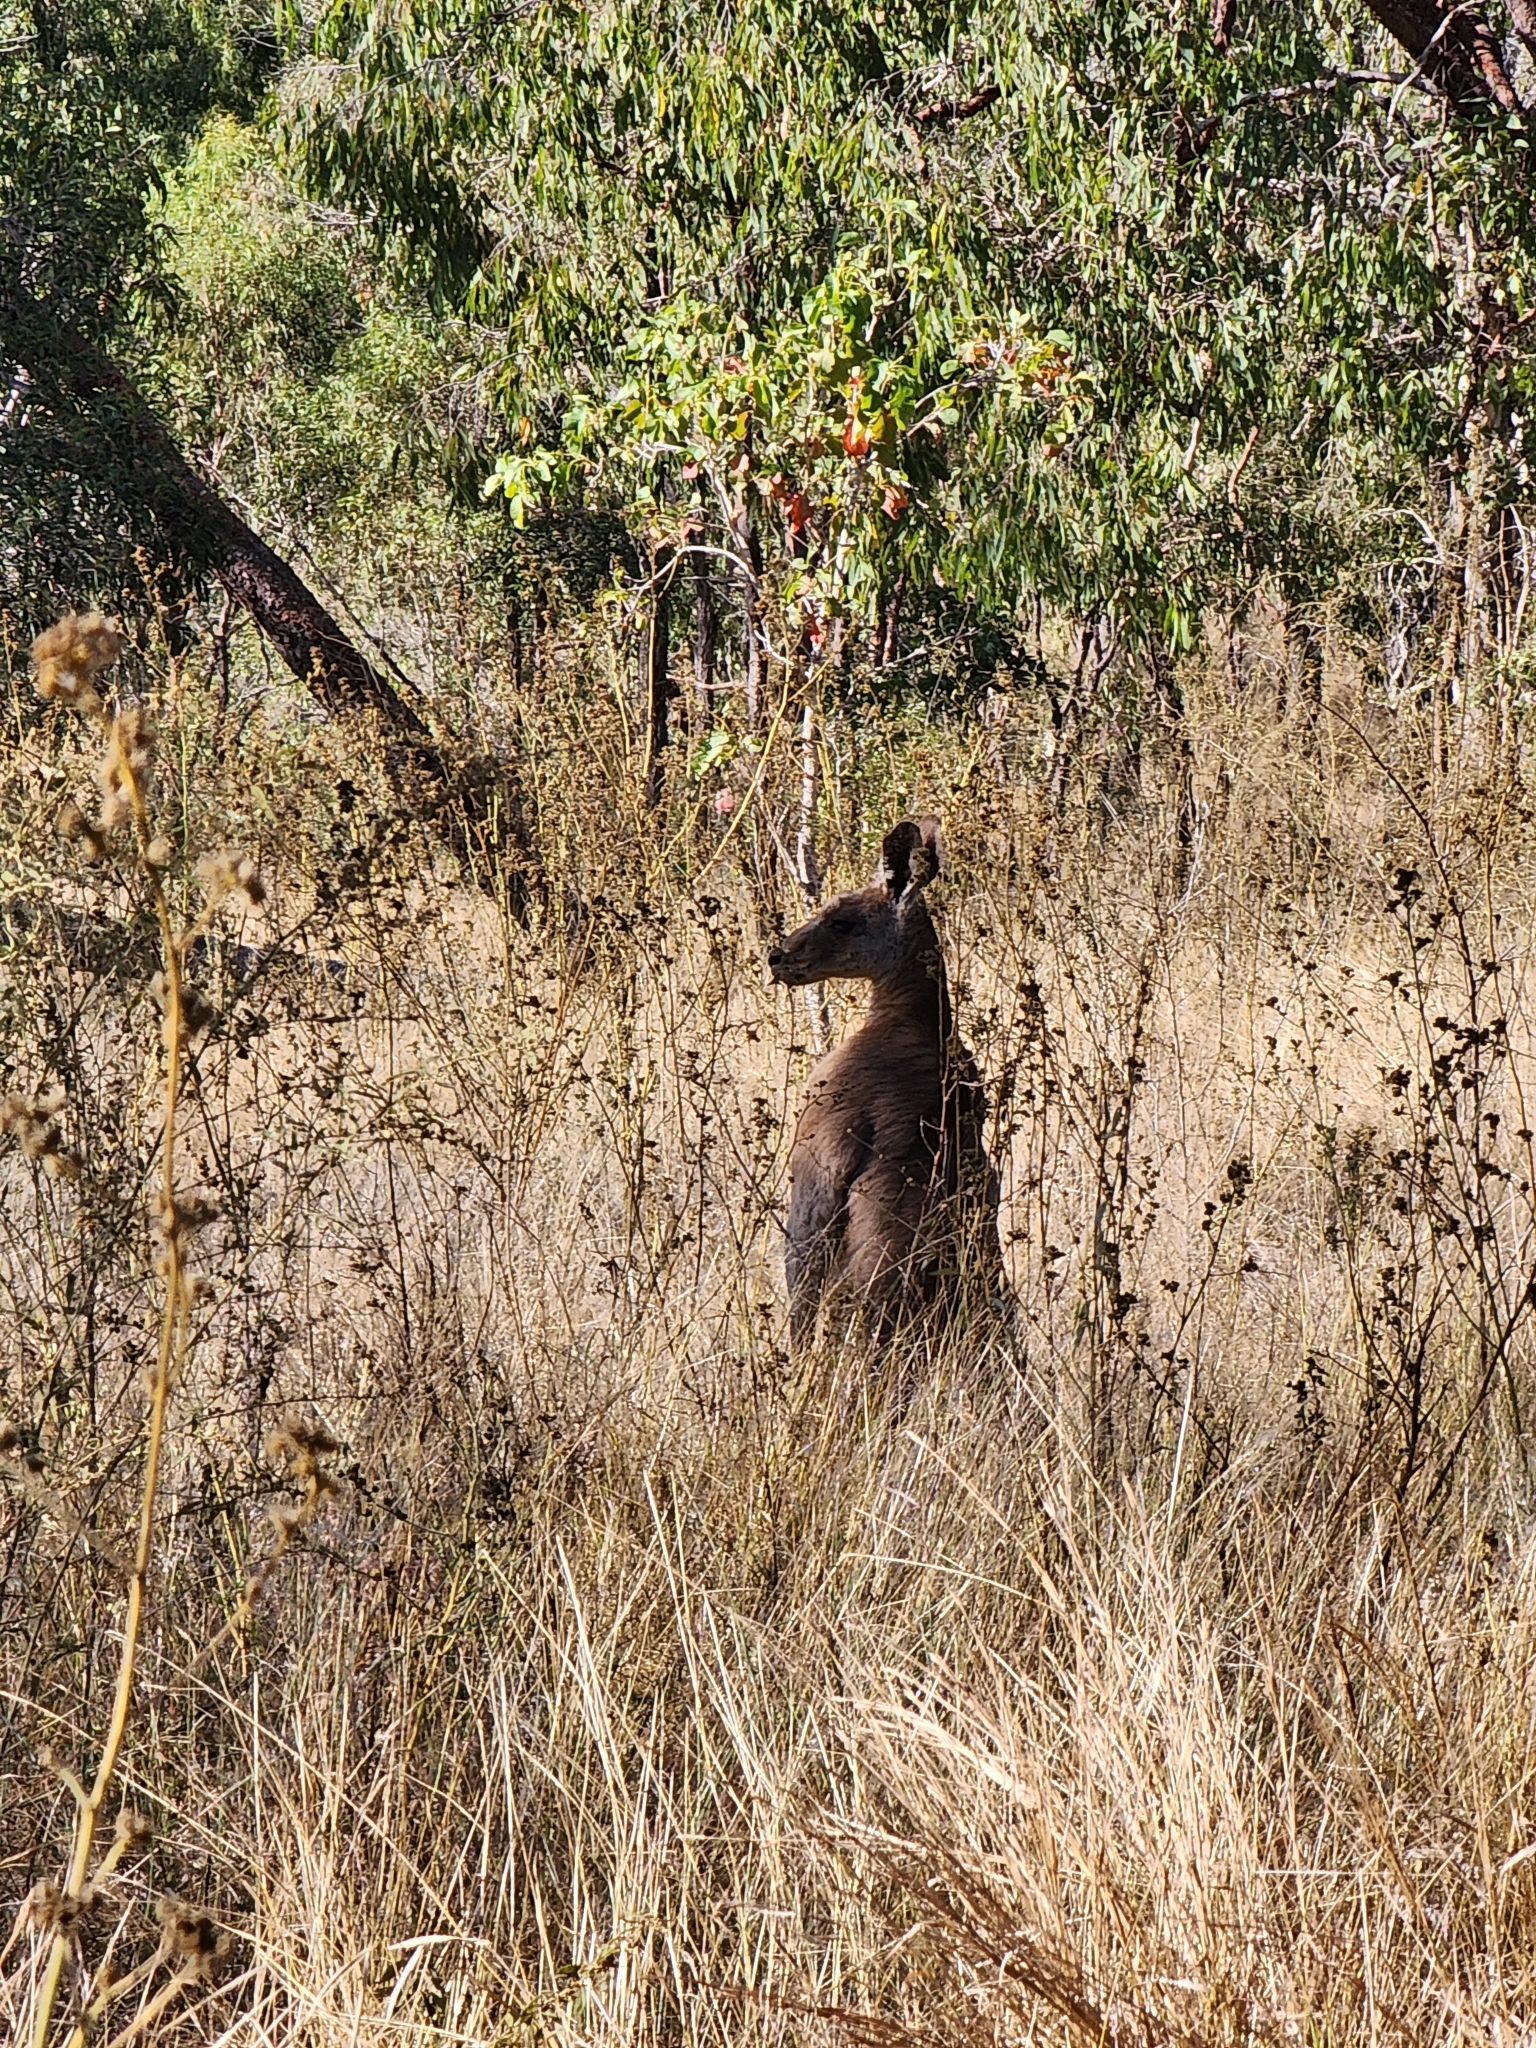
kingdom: Animalia
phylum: Chordata
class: Mammalia
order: Diprotodontia
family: Macropodidae
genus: Macropus
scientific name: Macropus giganteus
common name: Eastern grey kangaroo
